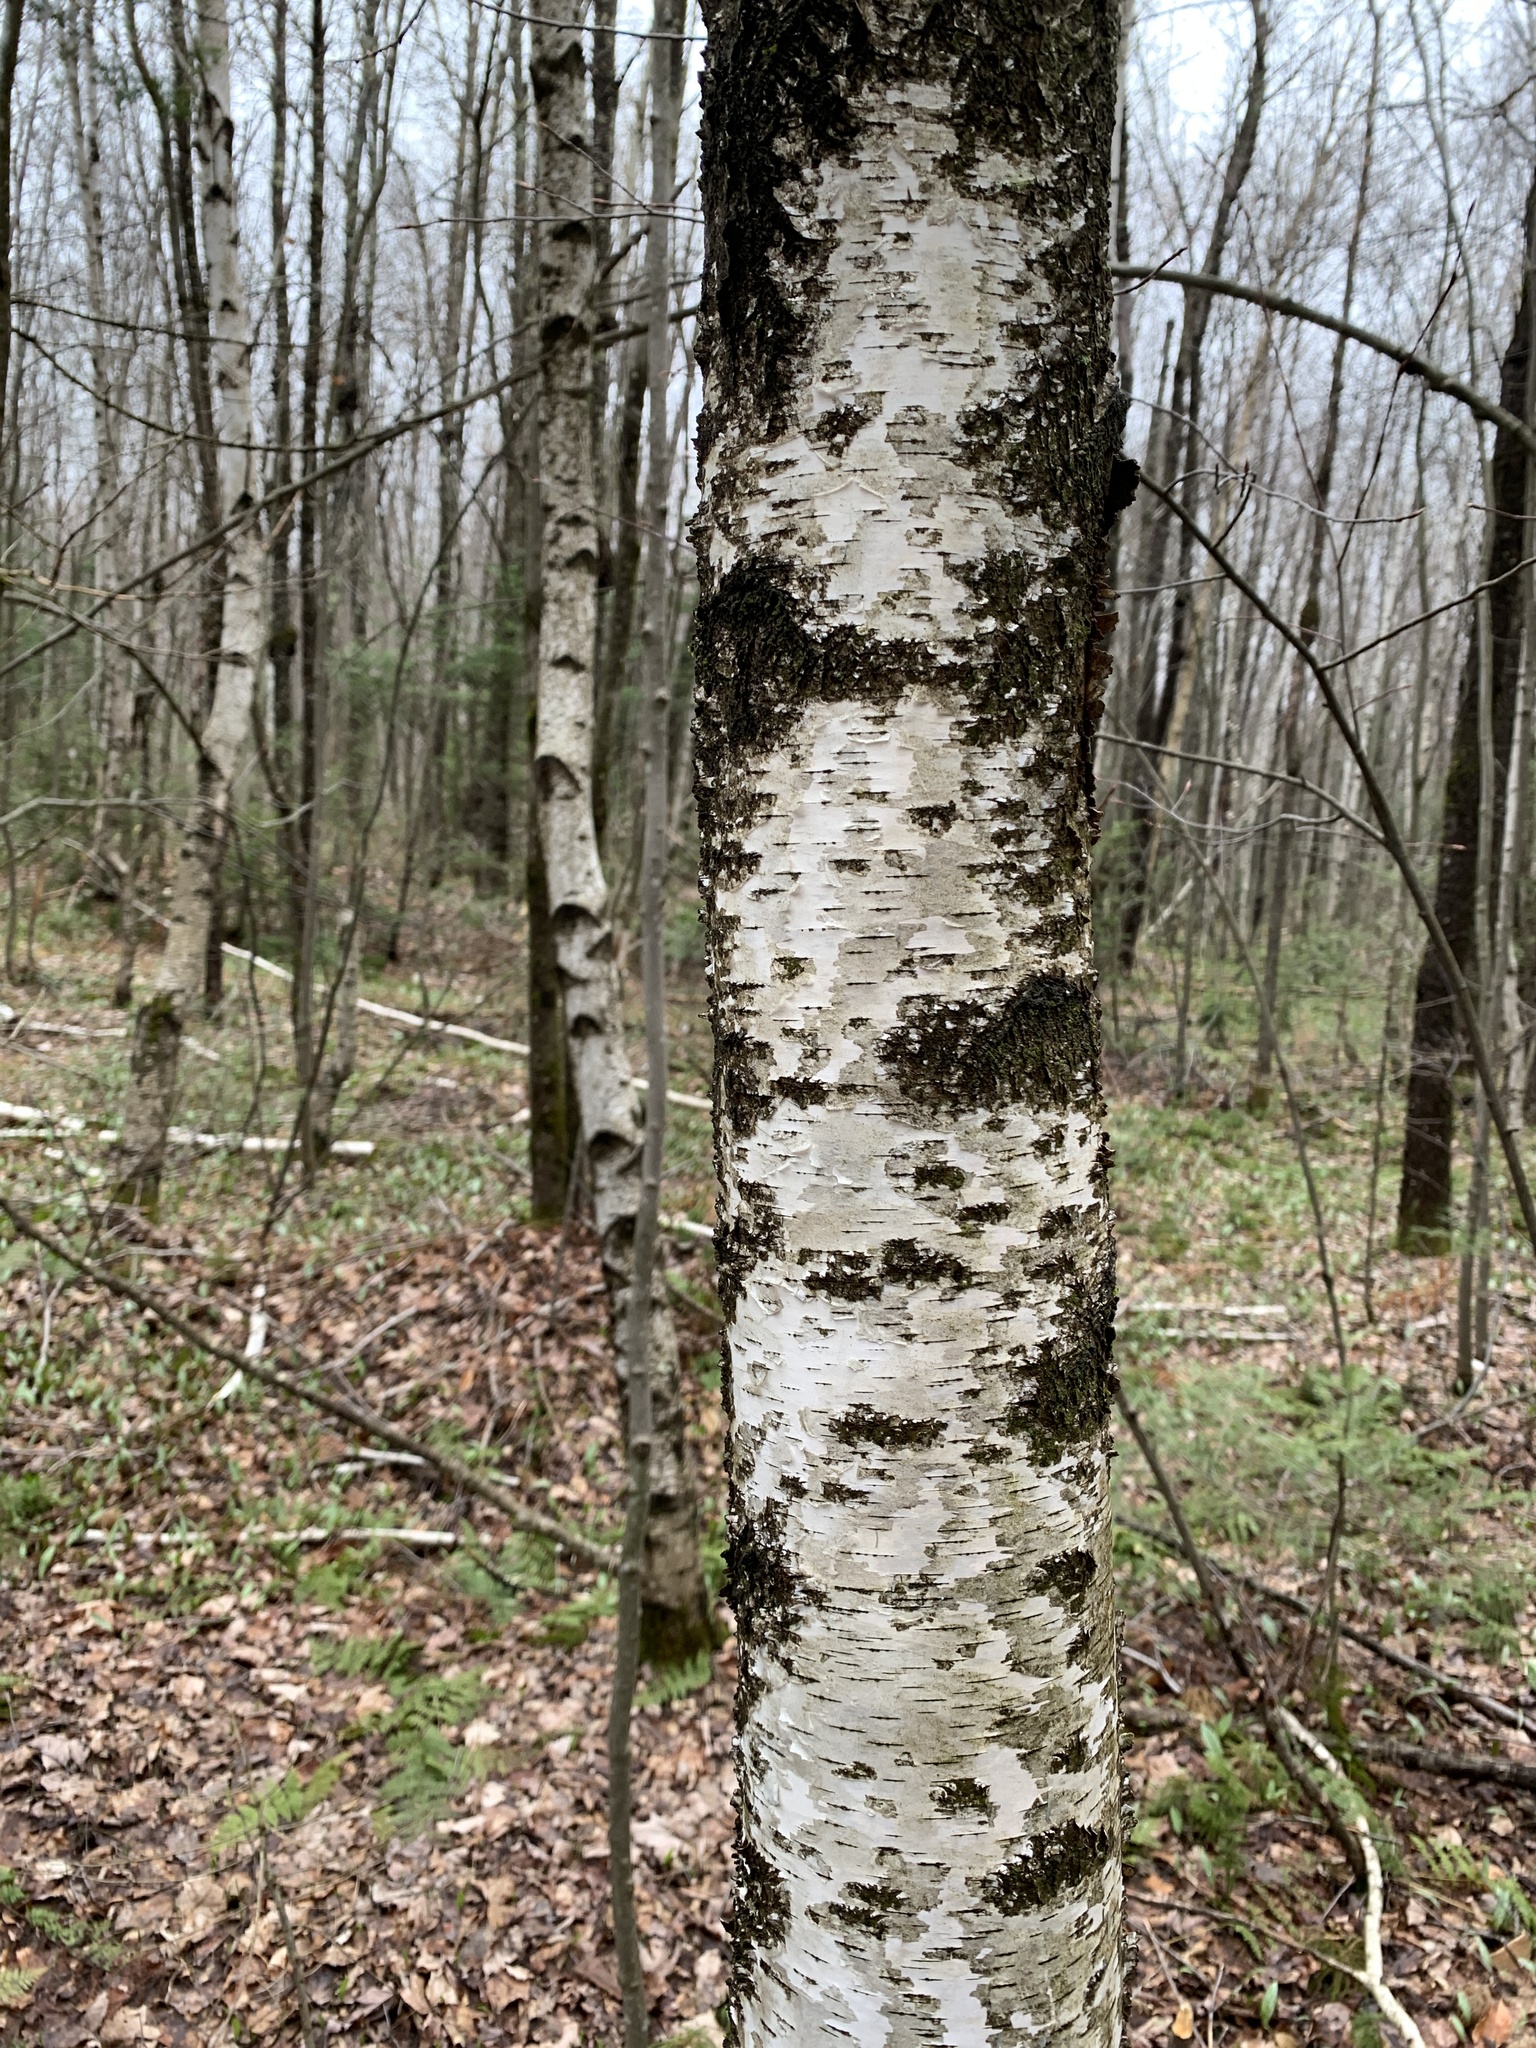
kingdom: Plantae
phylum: Tracheophyta
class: Magnoliopsida
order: Fagales
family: Betulaceae
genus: Betula
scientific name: Betula populifolia
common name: Fire birch
